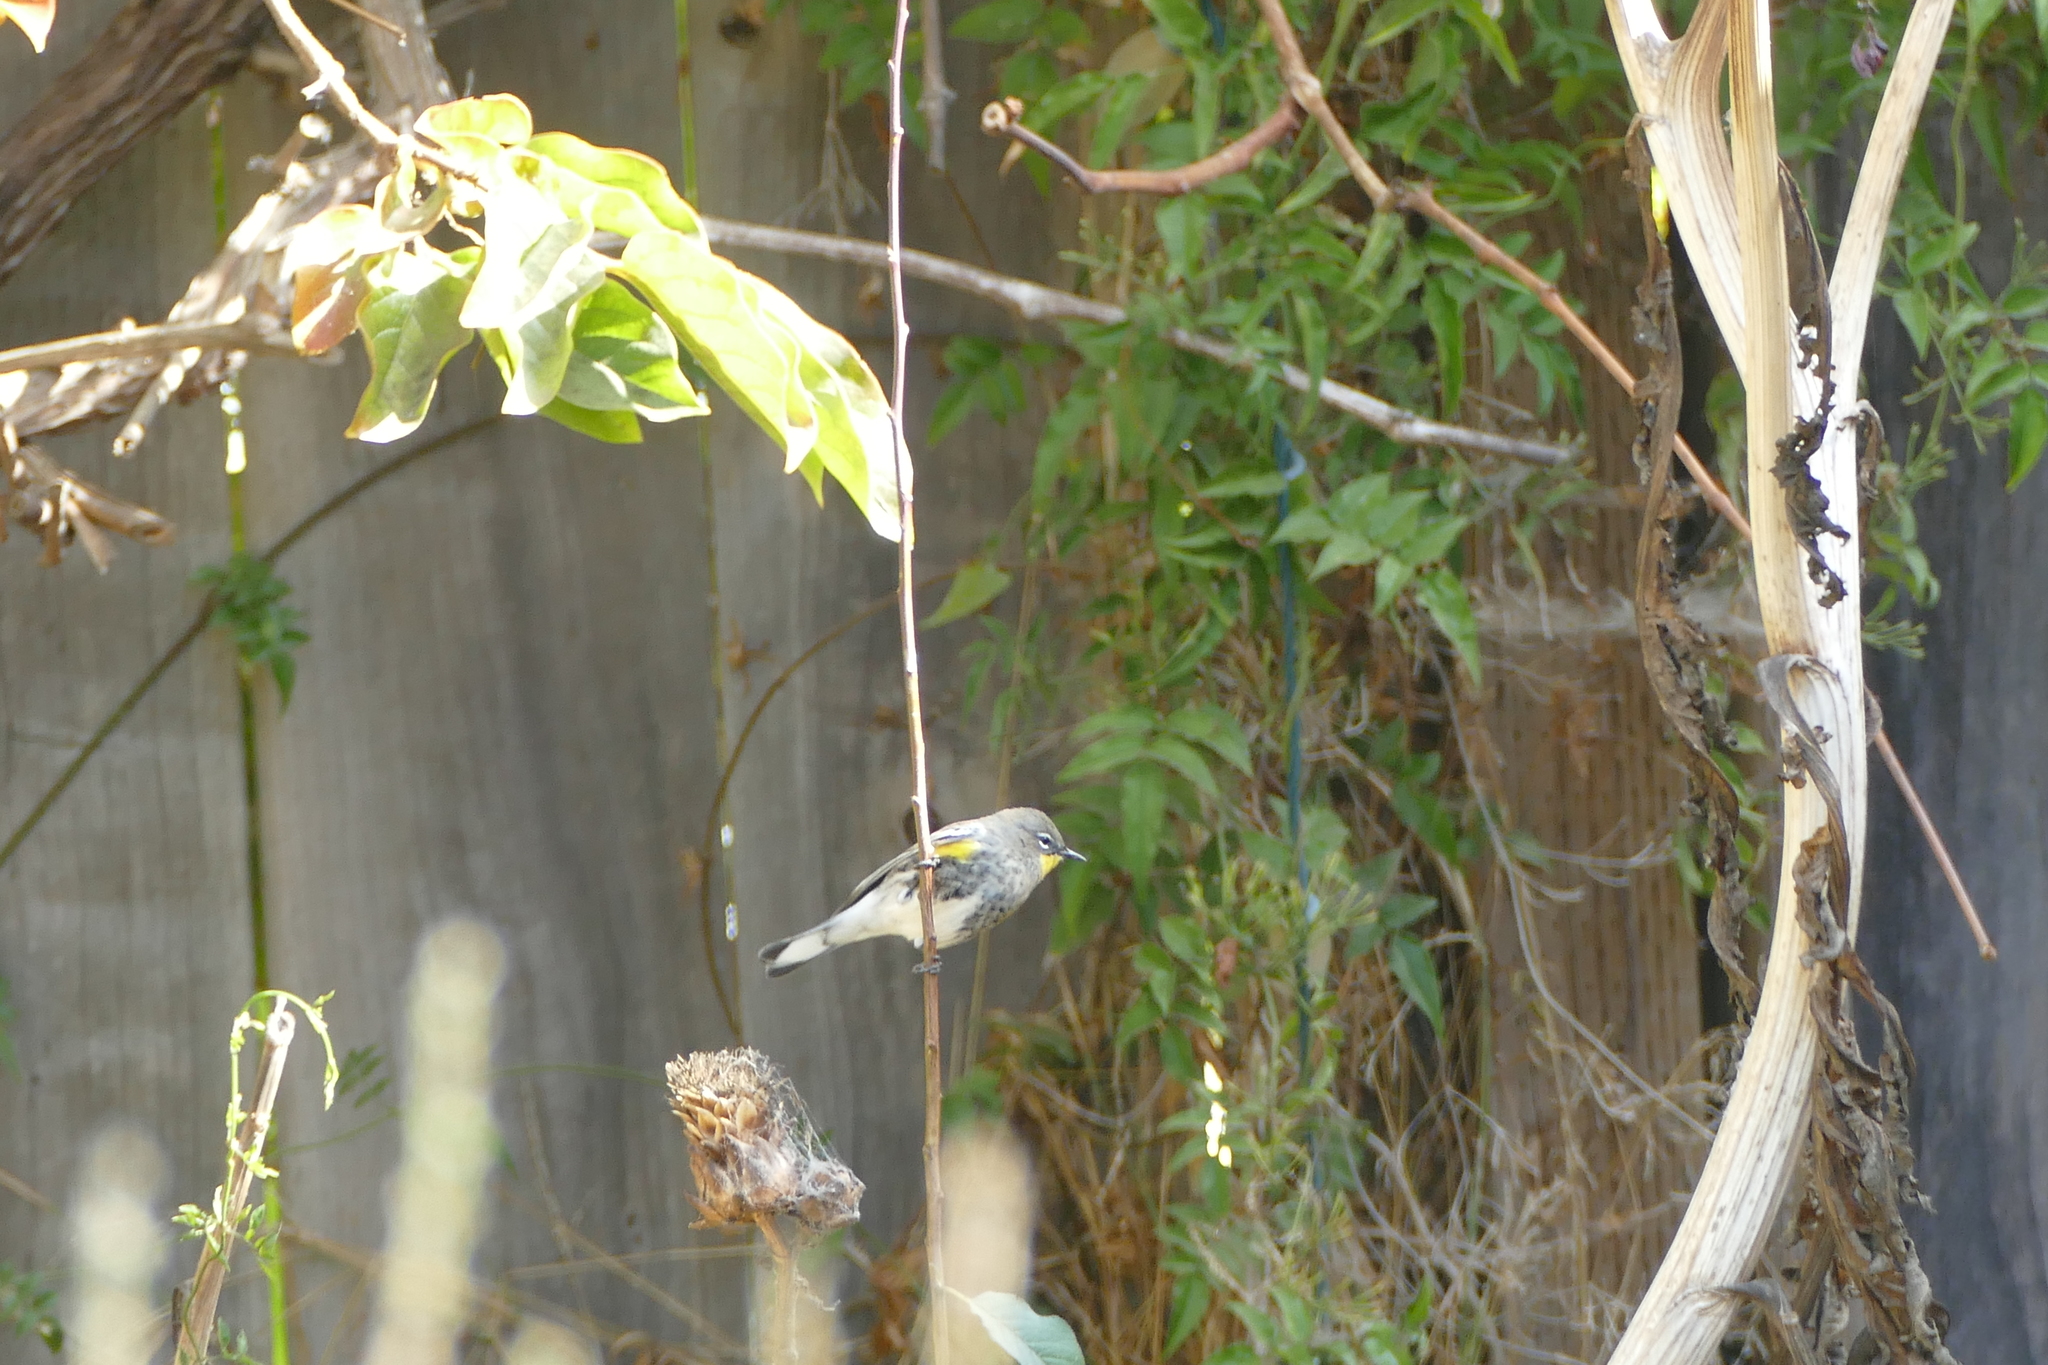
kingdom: Animalia
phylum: Chordata
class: Aves
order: Passeriformes
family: Parulidae
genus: Setophaga
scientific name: Setophaga coronata
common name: Myrtle warbler
